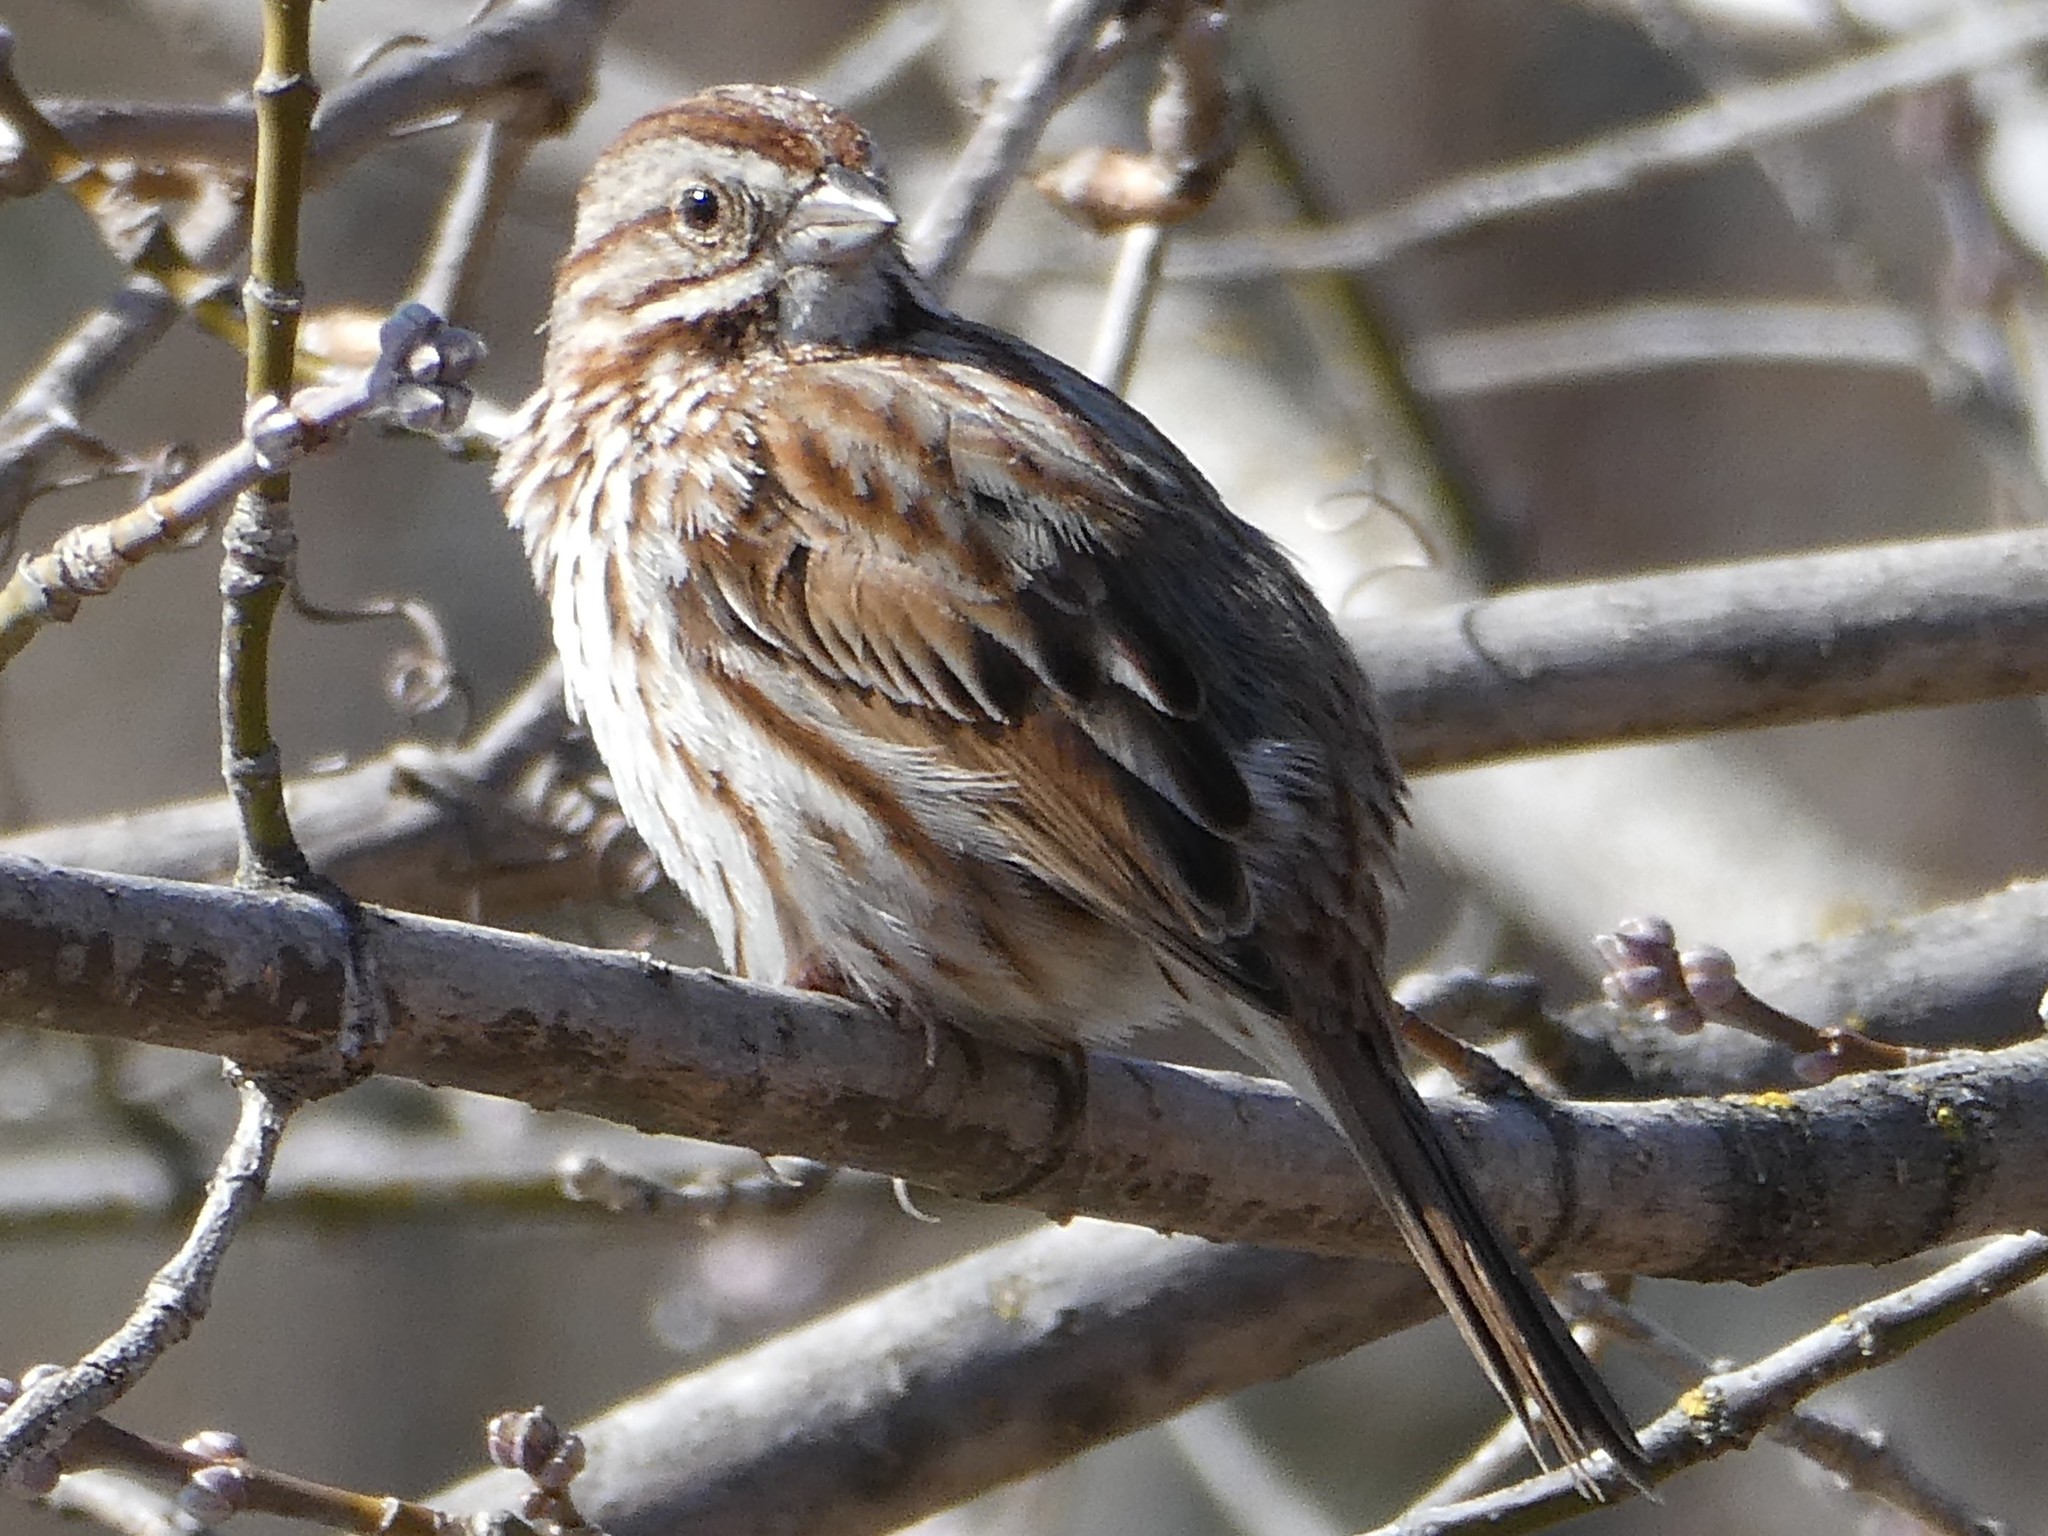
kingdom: Animalia
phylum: Chordata
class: Aves
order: Passeriformes
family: Passerellidae
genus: Melospiza
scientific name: Melospiza melodia
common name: Song sparrow
